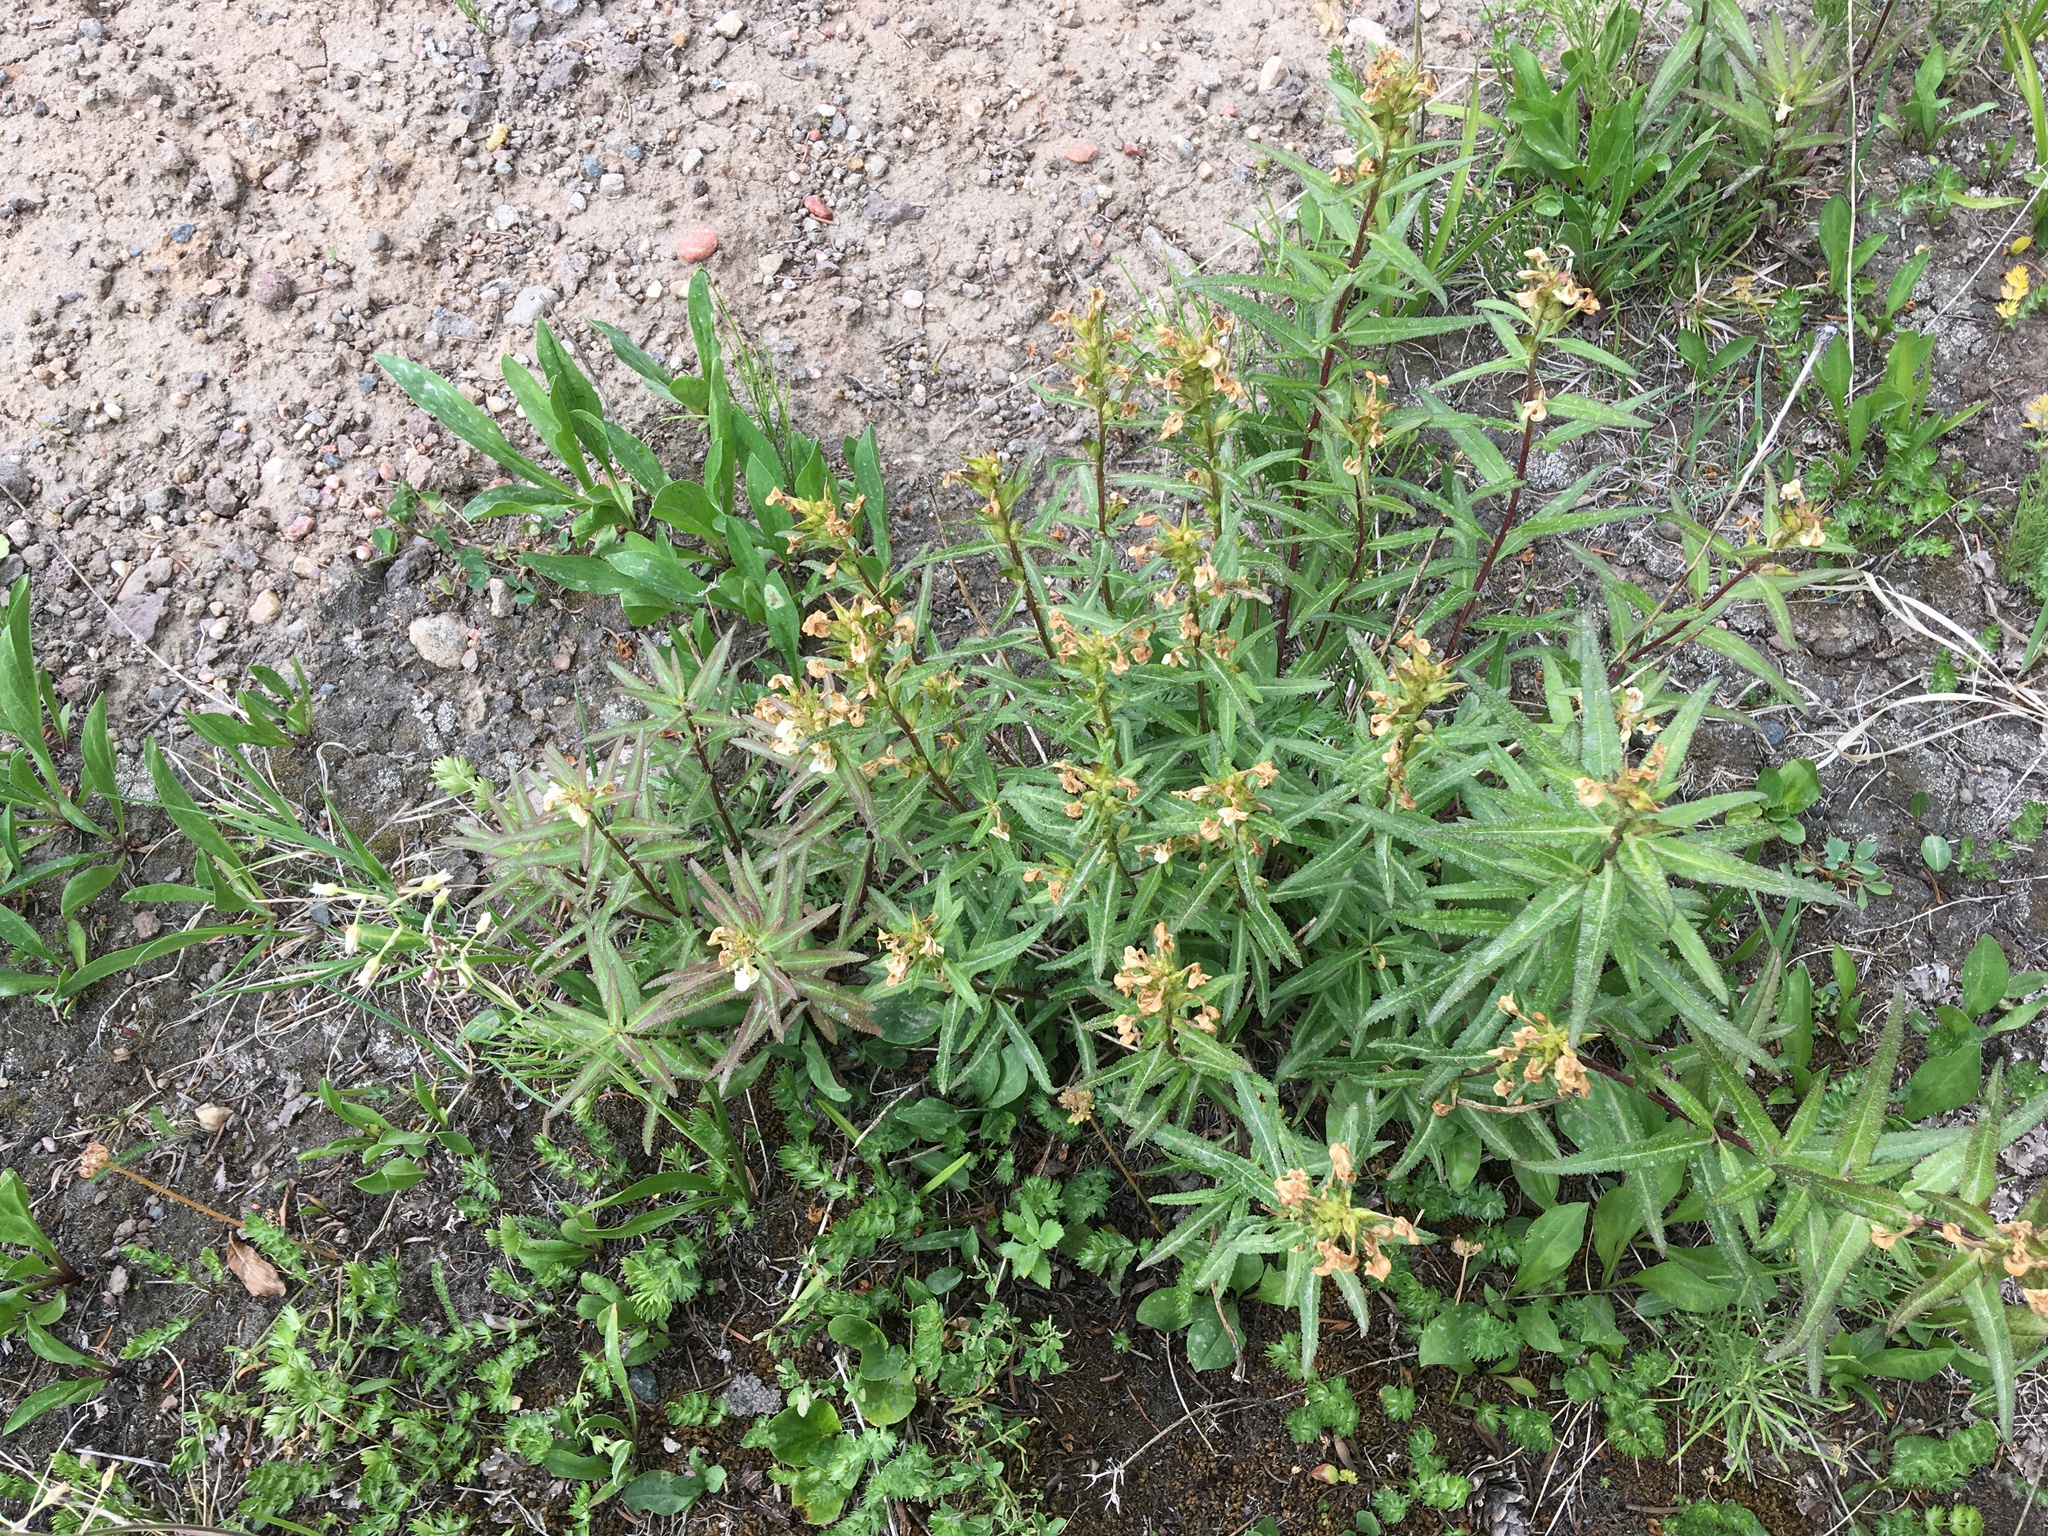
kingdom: Plantae
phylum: Tracheophyta
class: Magnoliopsida
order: Lamiales
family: Orobanchaceae
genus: Pedicularis
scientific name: Pedicularis racemosa
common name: Leafy lousewort
